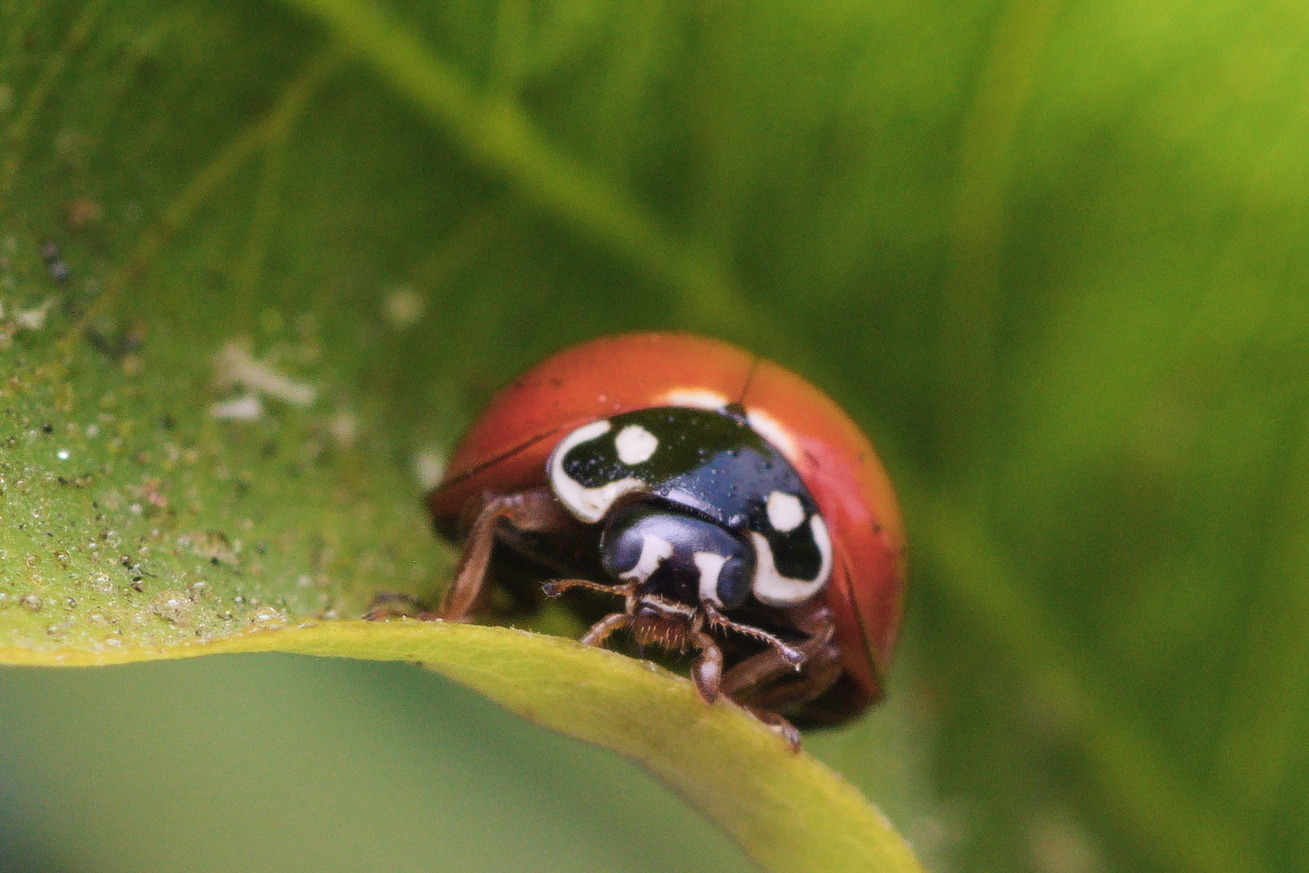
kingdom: Animalia
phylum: Arthropoda
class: Insecta
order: Coleoptera
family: Coccinellidae
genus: Cycloneda
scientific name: Cycloneda sanguinea
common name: Ladybird beetle
